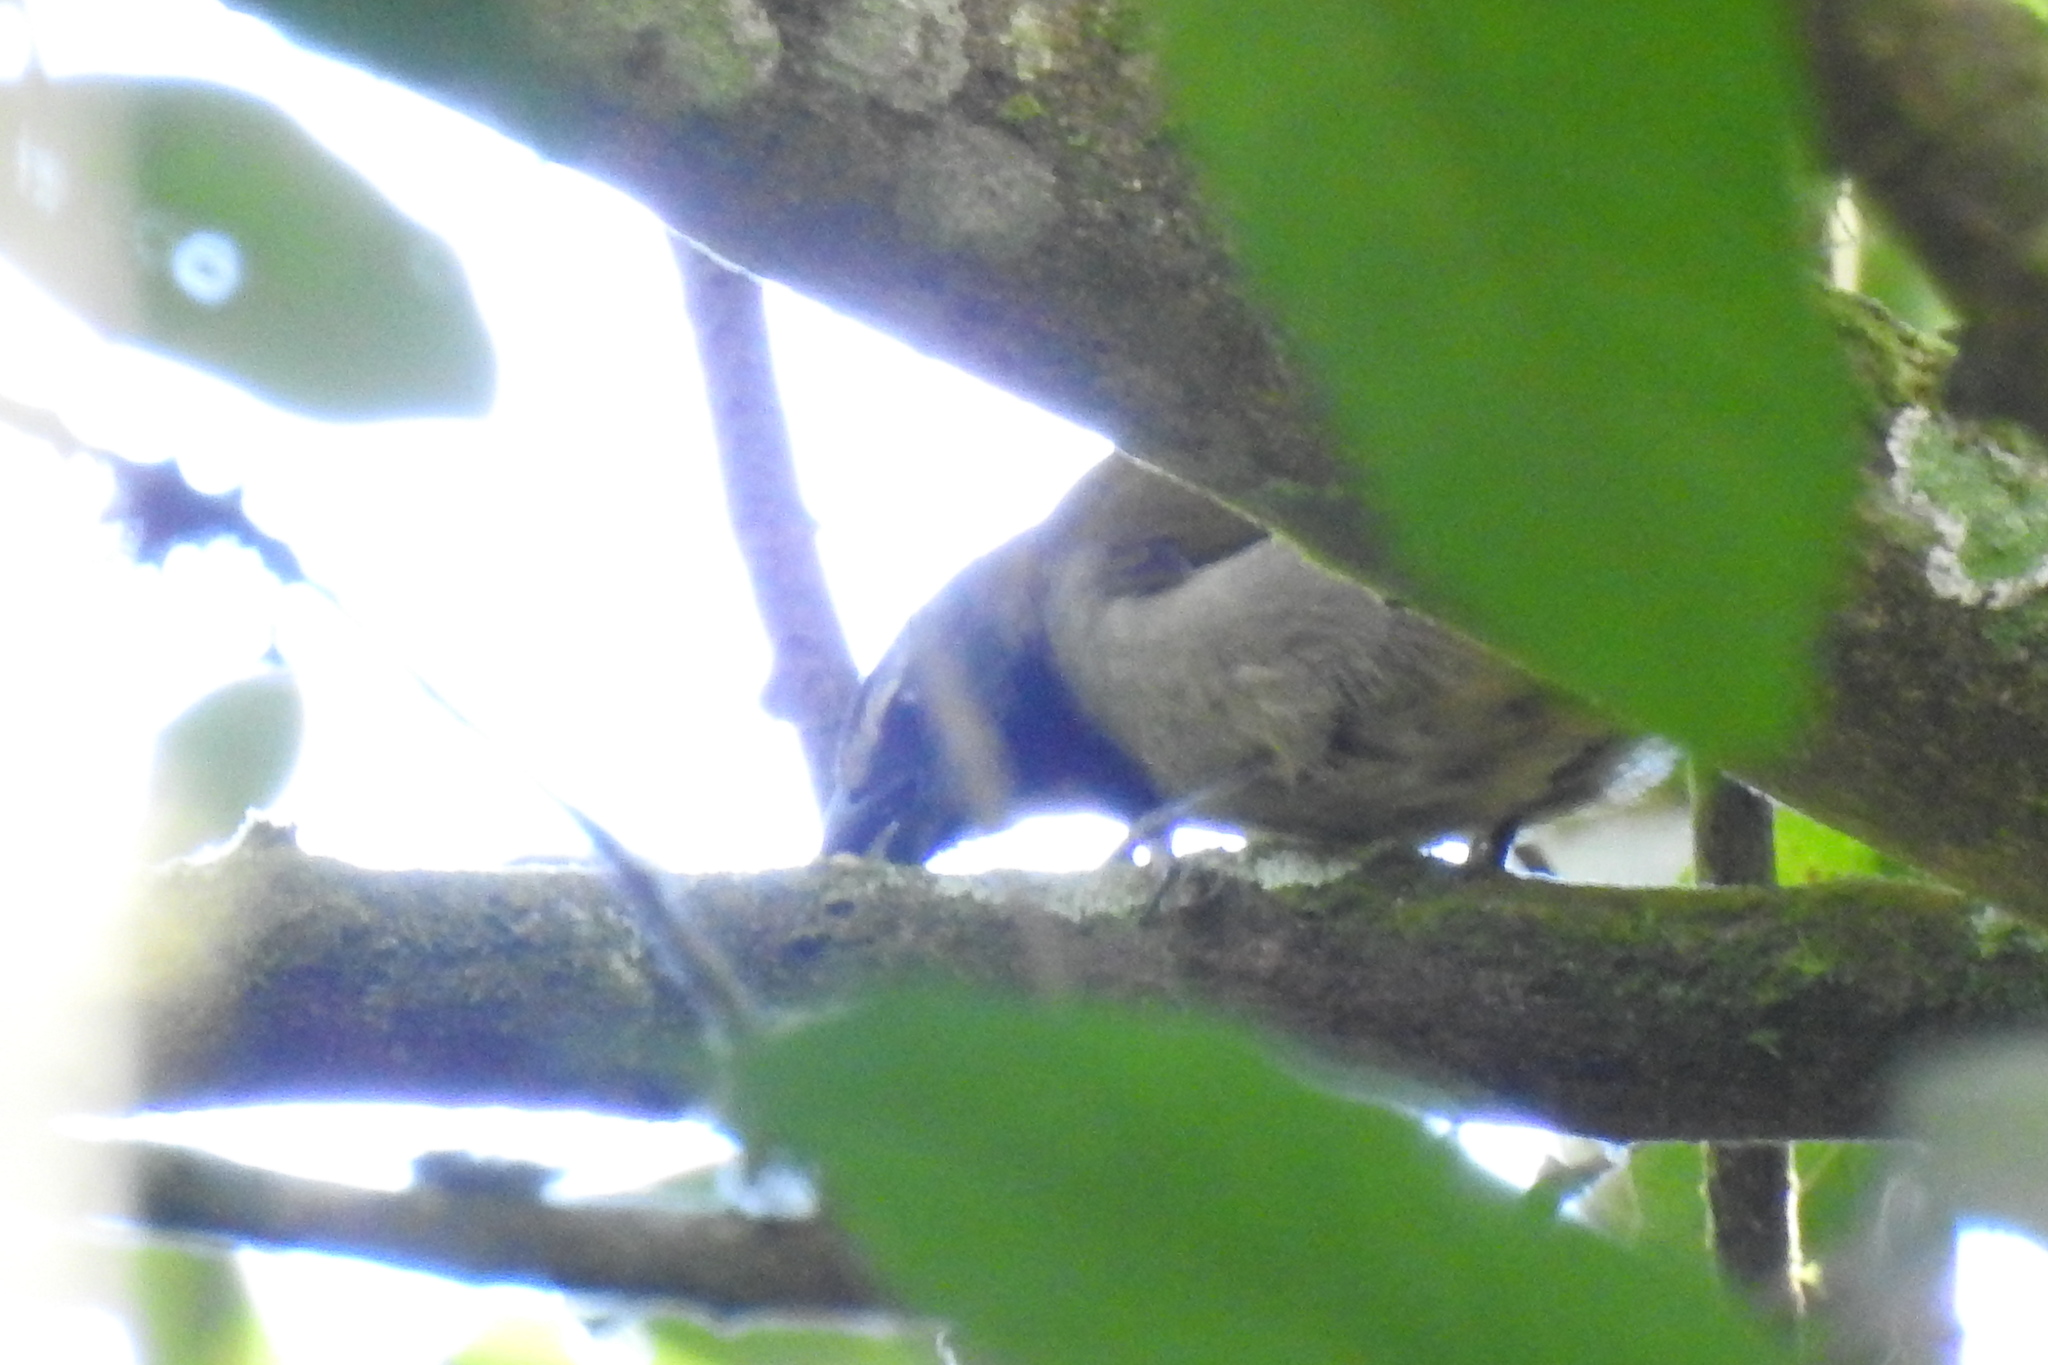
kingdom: Animalia
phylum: Chordata
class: Aves
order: Passeriformes
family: Thraupidae
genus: Saltator
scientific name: Saltator maximus
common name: Buff-throated saltator
